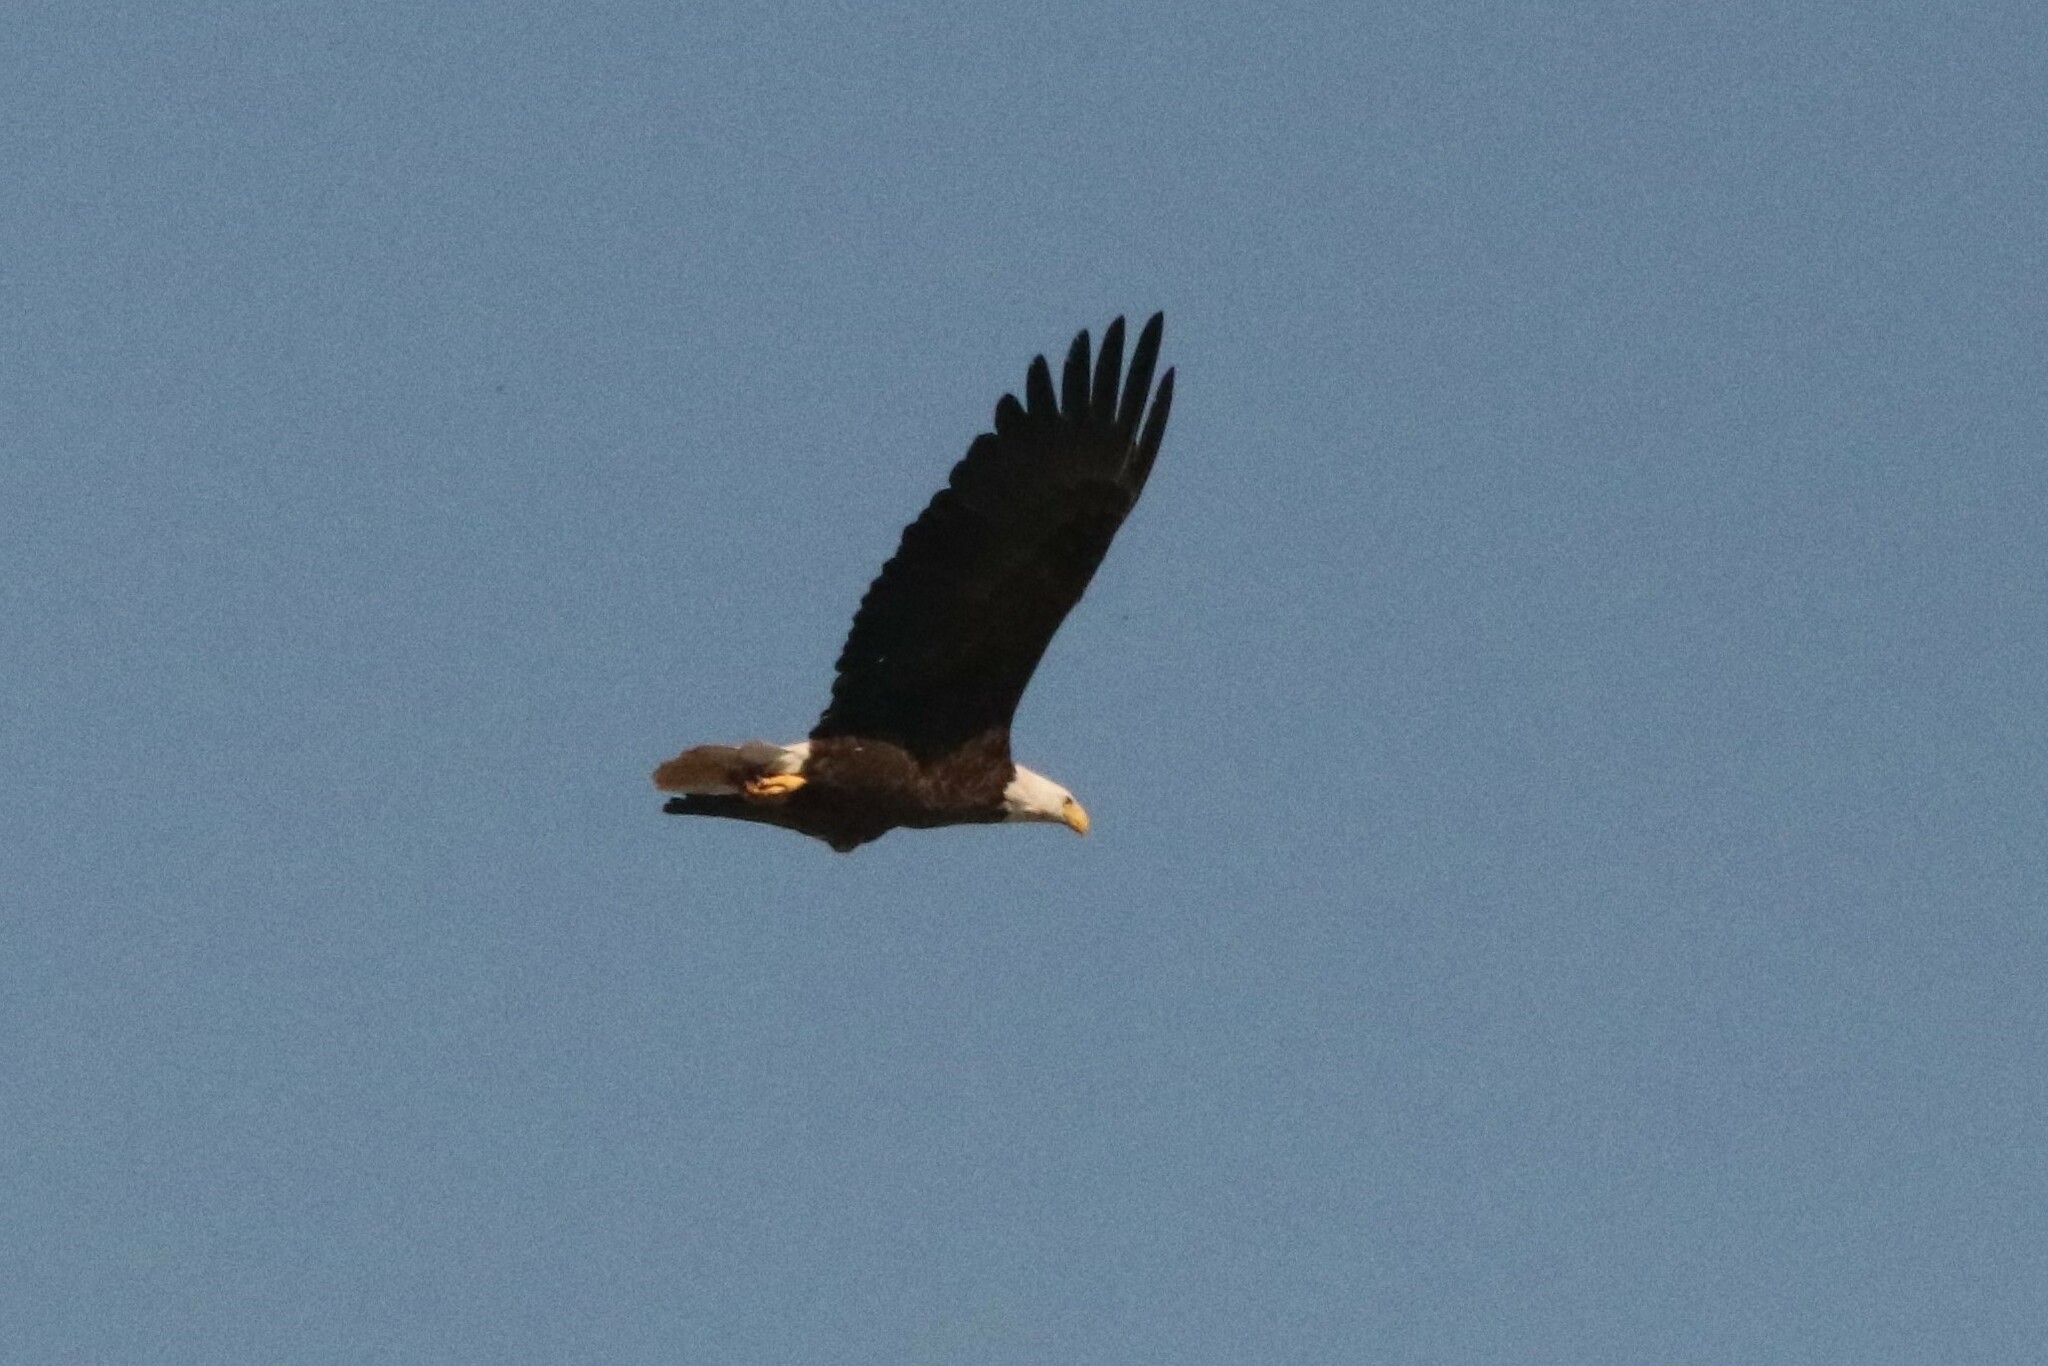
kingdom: Animalia
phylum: Chordata
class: Aves
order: Accipitriformes
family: Accipitridae
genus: Haliaeetus
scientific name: Haliaeetus leucocephalus
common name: Bald eagle
